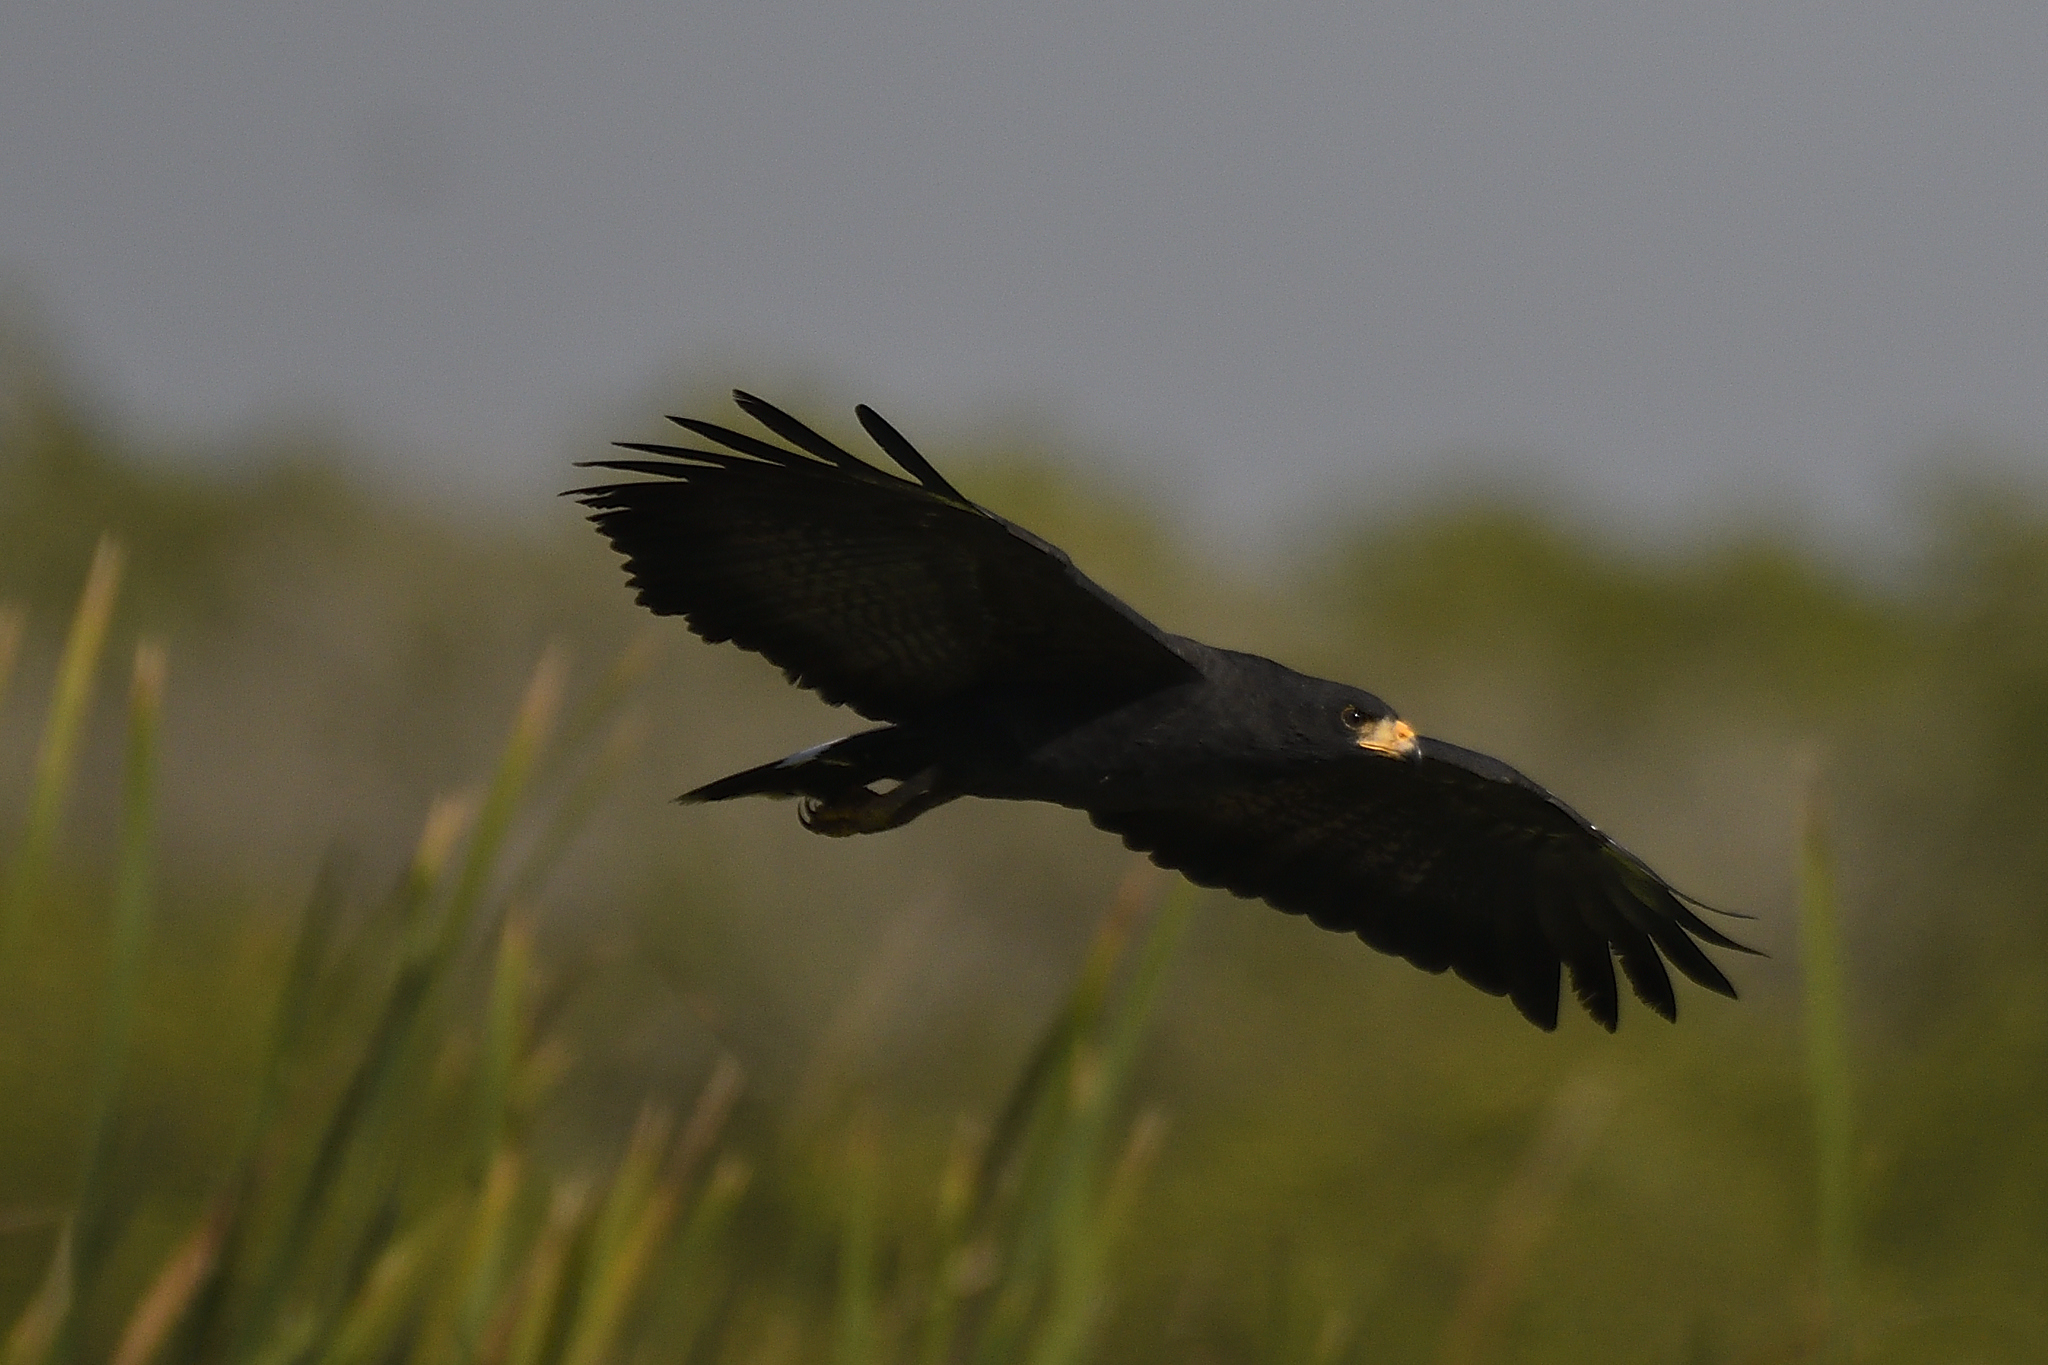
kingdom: Animalia
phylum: Chordata
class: Aves
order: Accipitriformes
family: Accipitridae
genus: Buteogallus
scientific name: Buteogallus anthracinus
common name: Common black hawk
